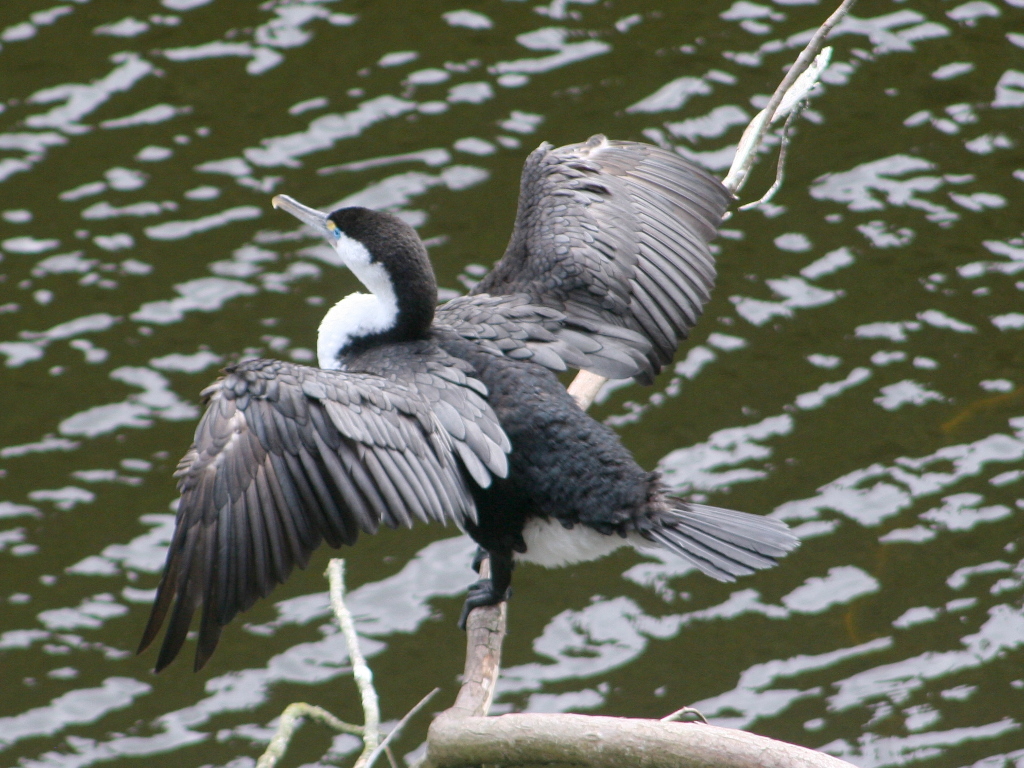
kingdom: Animalia
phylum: Chordata
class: Aves
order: Suliformes
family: Phalacrocoracidae
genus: Phalacrocorax
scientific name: Phalacrocorax varius
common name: Pied cormorant
